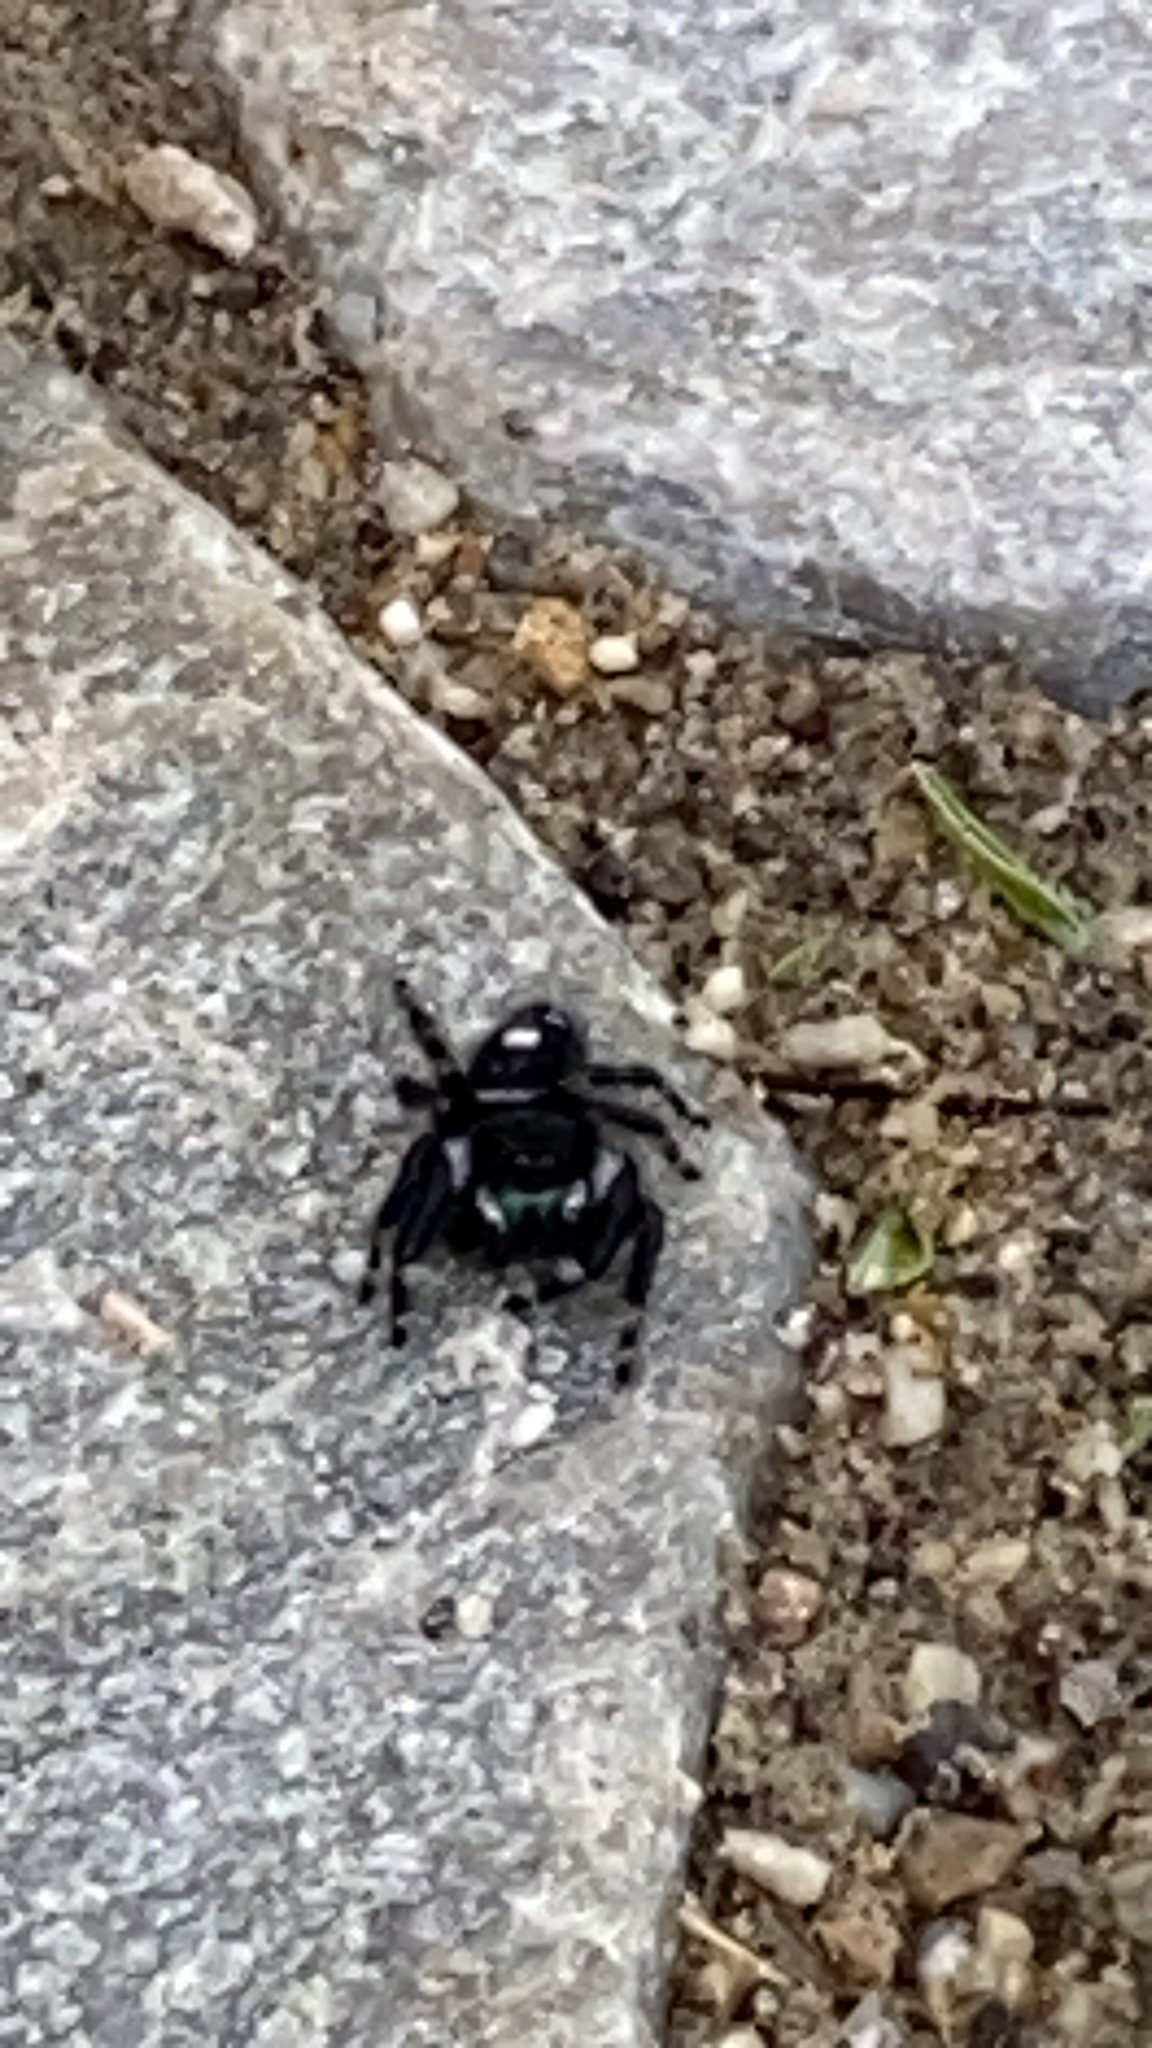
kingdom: Animalia
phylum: Arthropoda
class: Arachnida
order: Araneae
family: Salticidae
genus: Phidippus
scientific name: Phidippus audax
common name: Bold jumper
